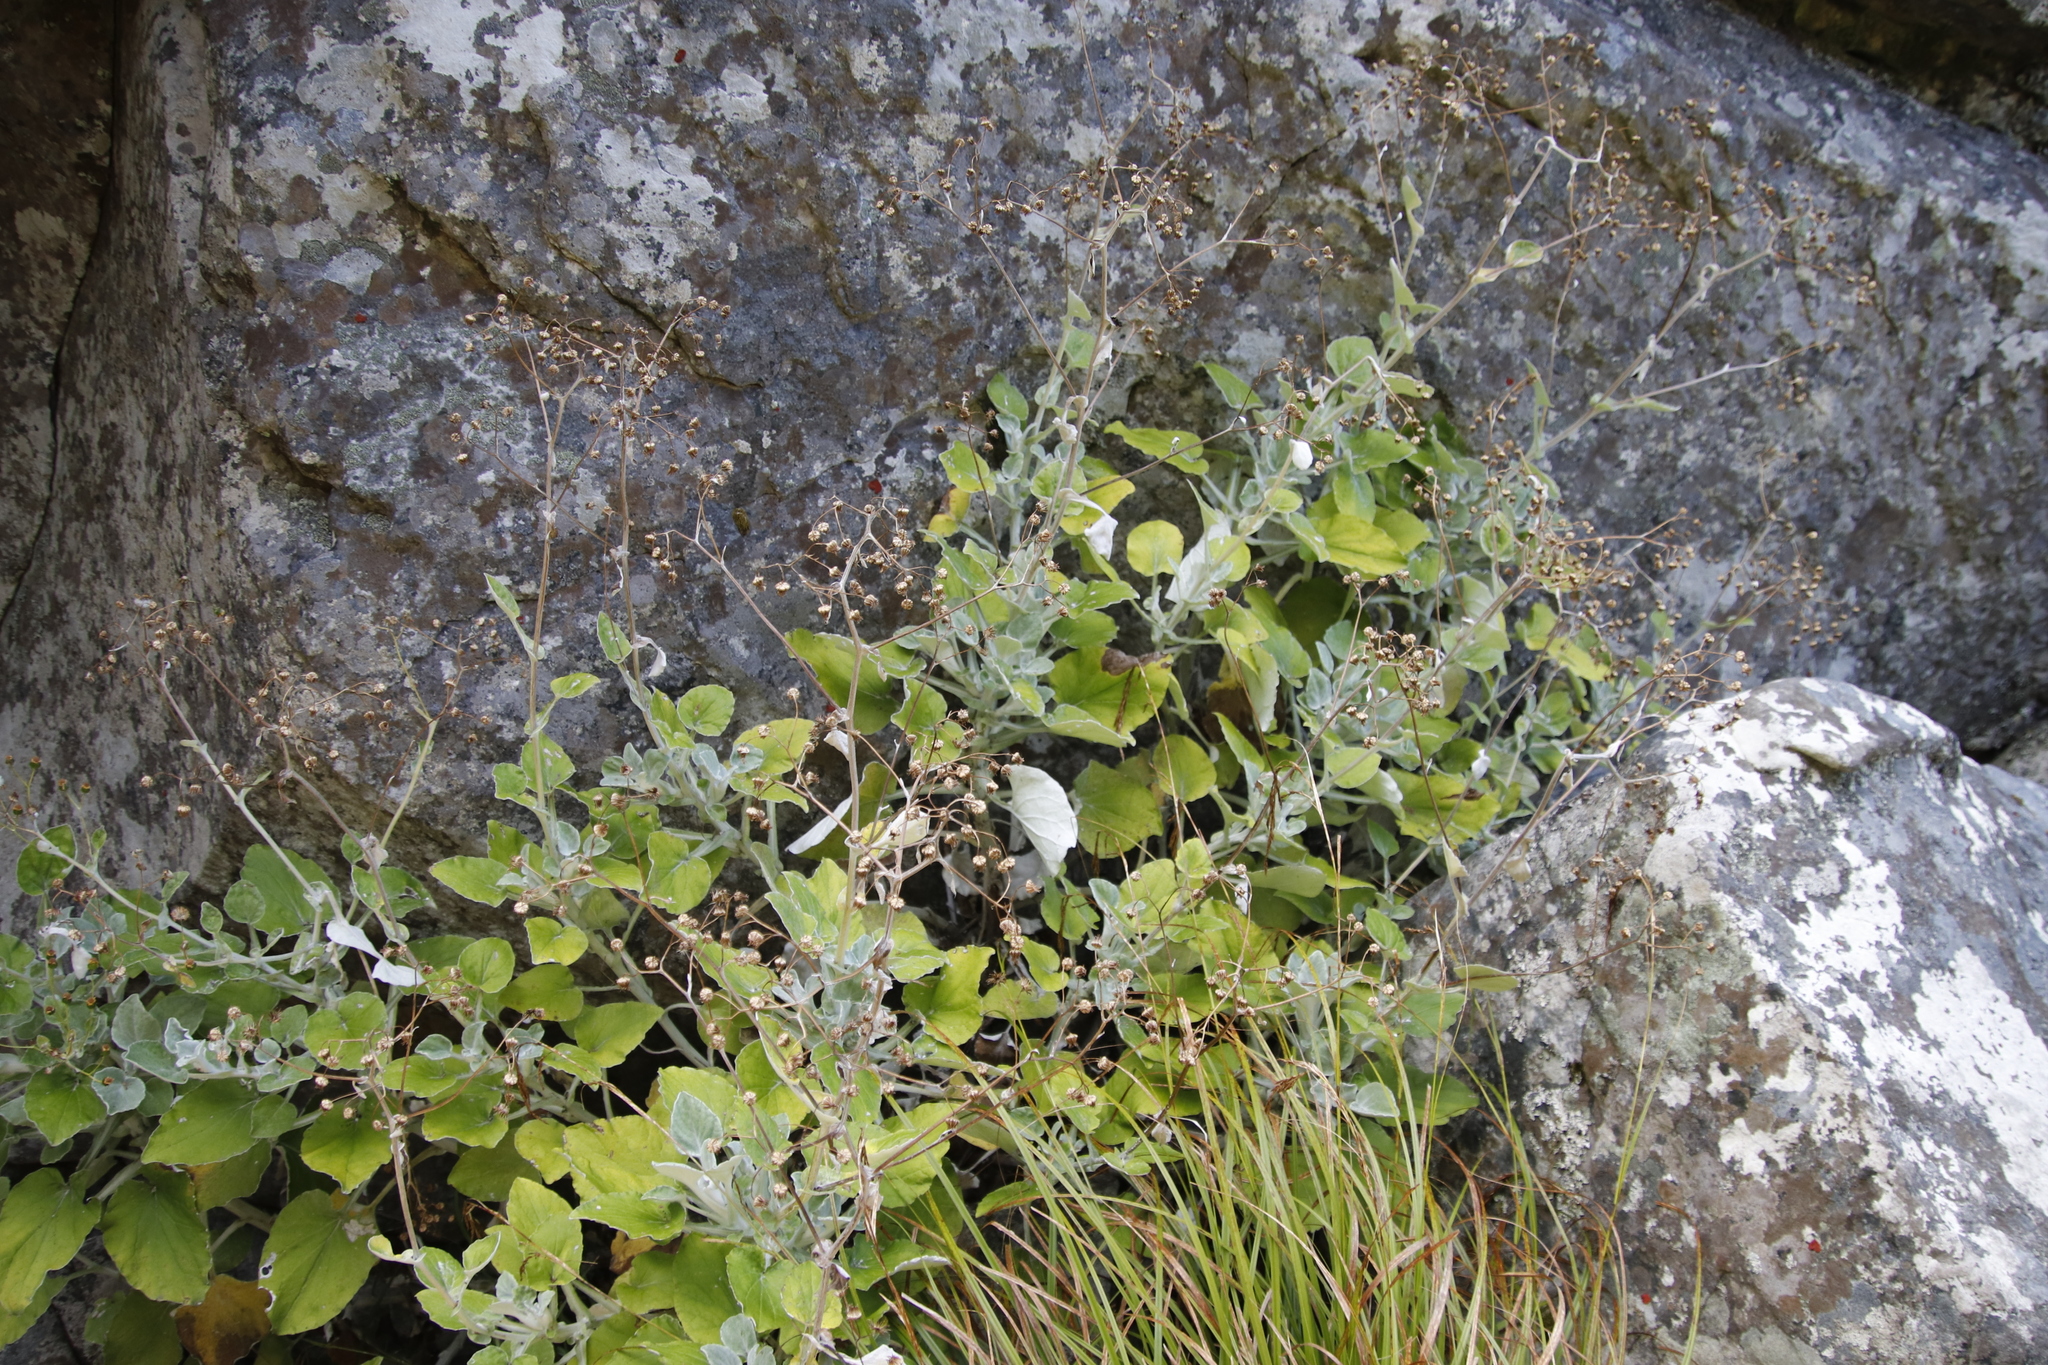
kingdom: Plantae
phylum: Tracheophyta
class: Magnoliopsida
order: Asterales
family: Asteraceae
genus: Senecio
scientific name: Senecio verbascifolius
